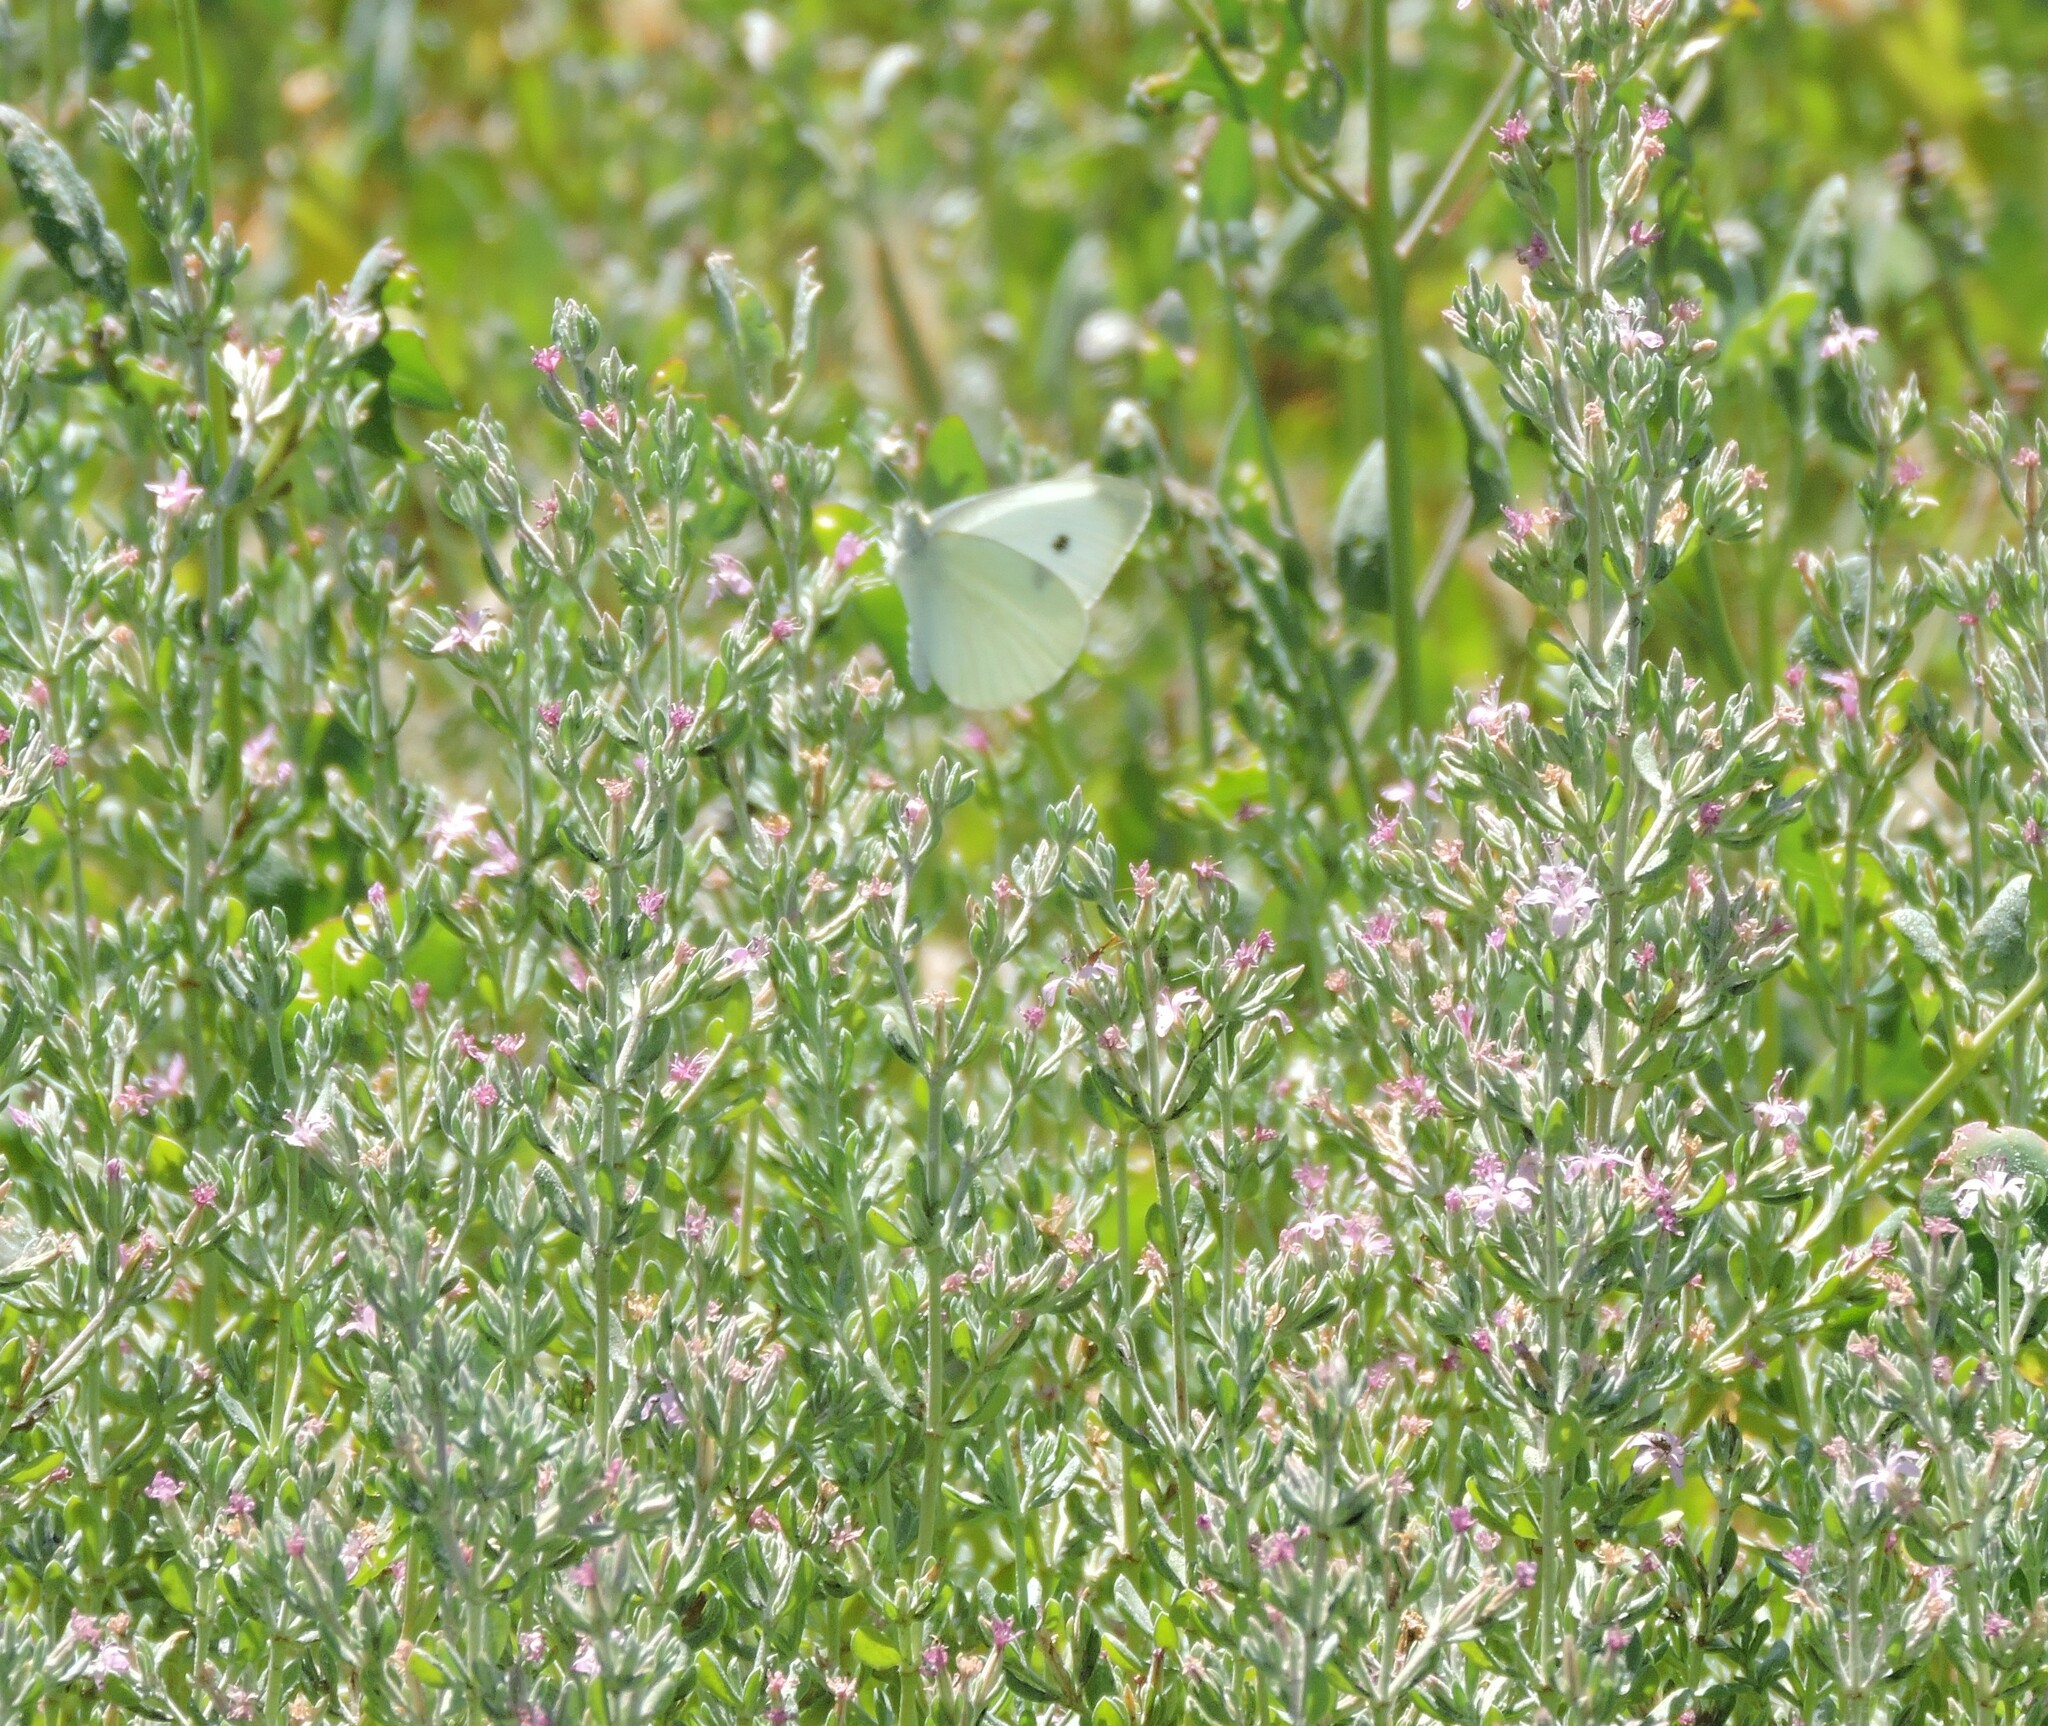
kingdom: Plantae
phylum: Tracheophyta
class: Magnoliopsida
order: Caryophyllales
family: Frankeniaceae
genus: Frankenia
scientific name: Frankenia salina
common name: Alkali seaheath
